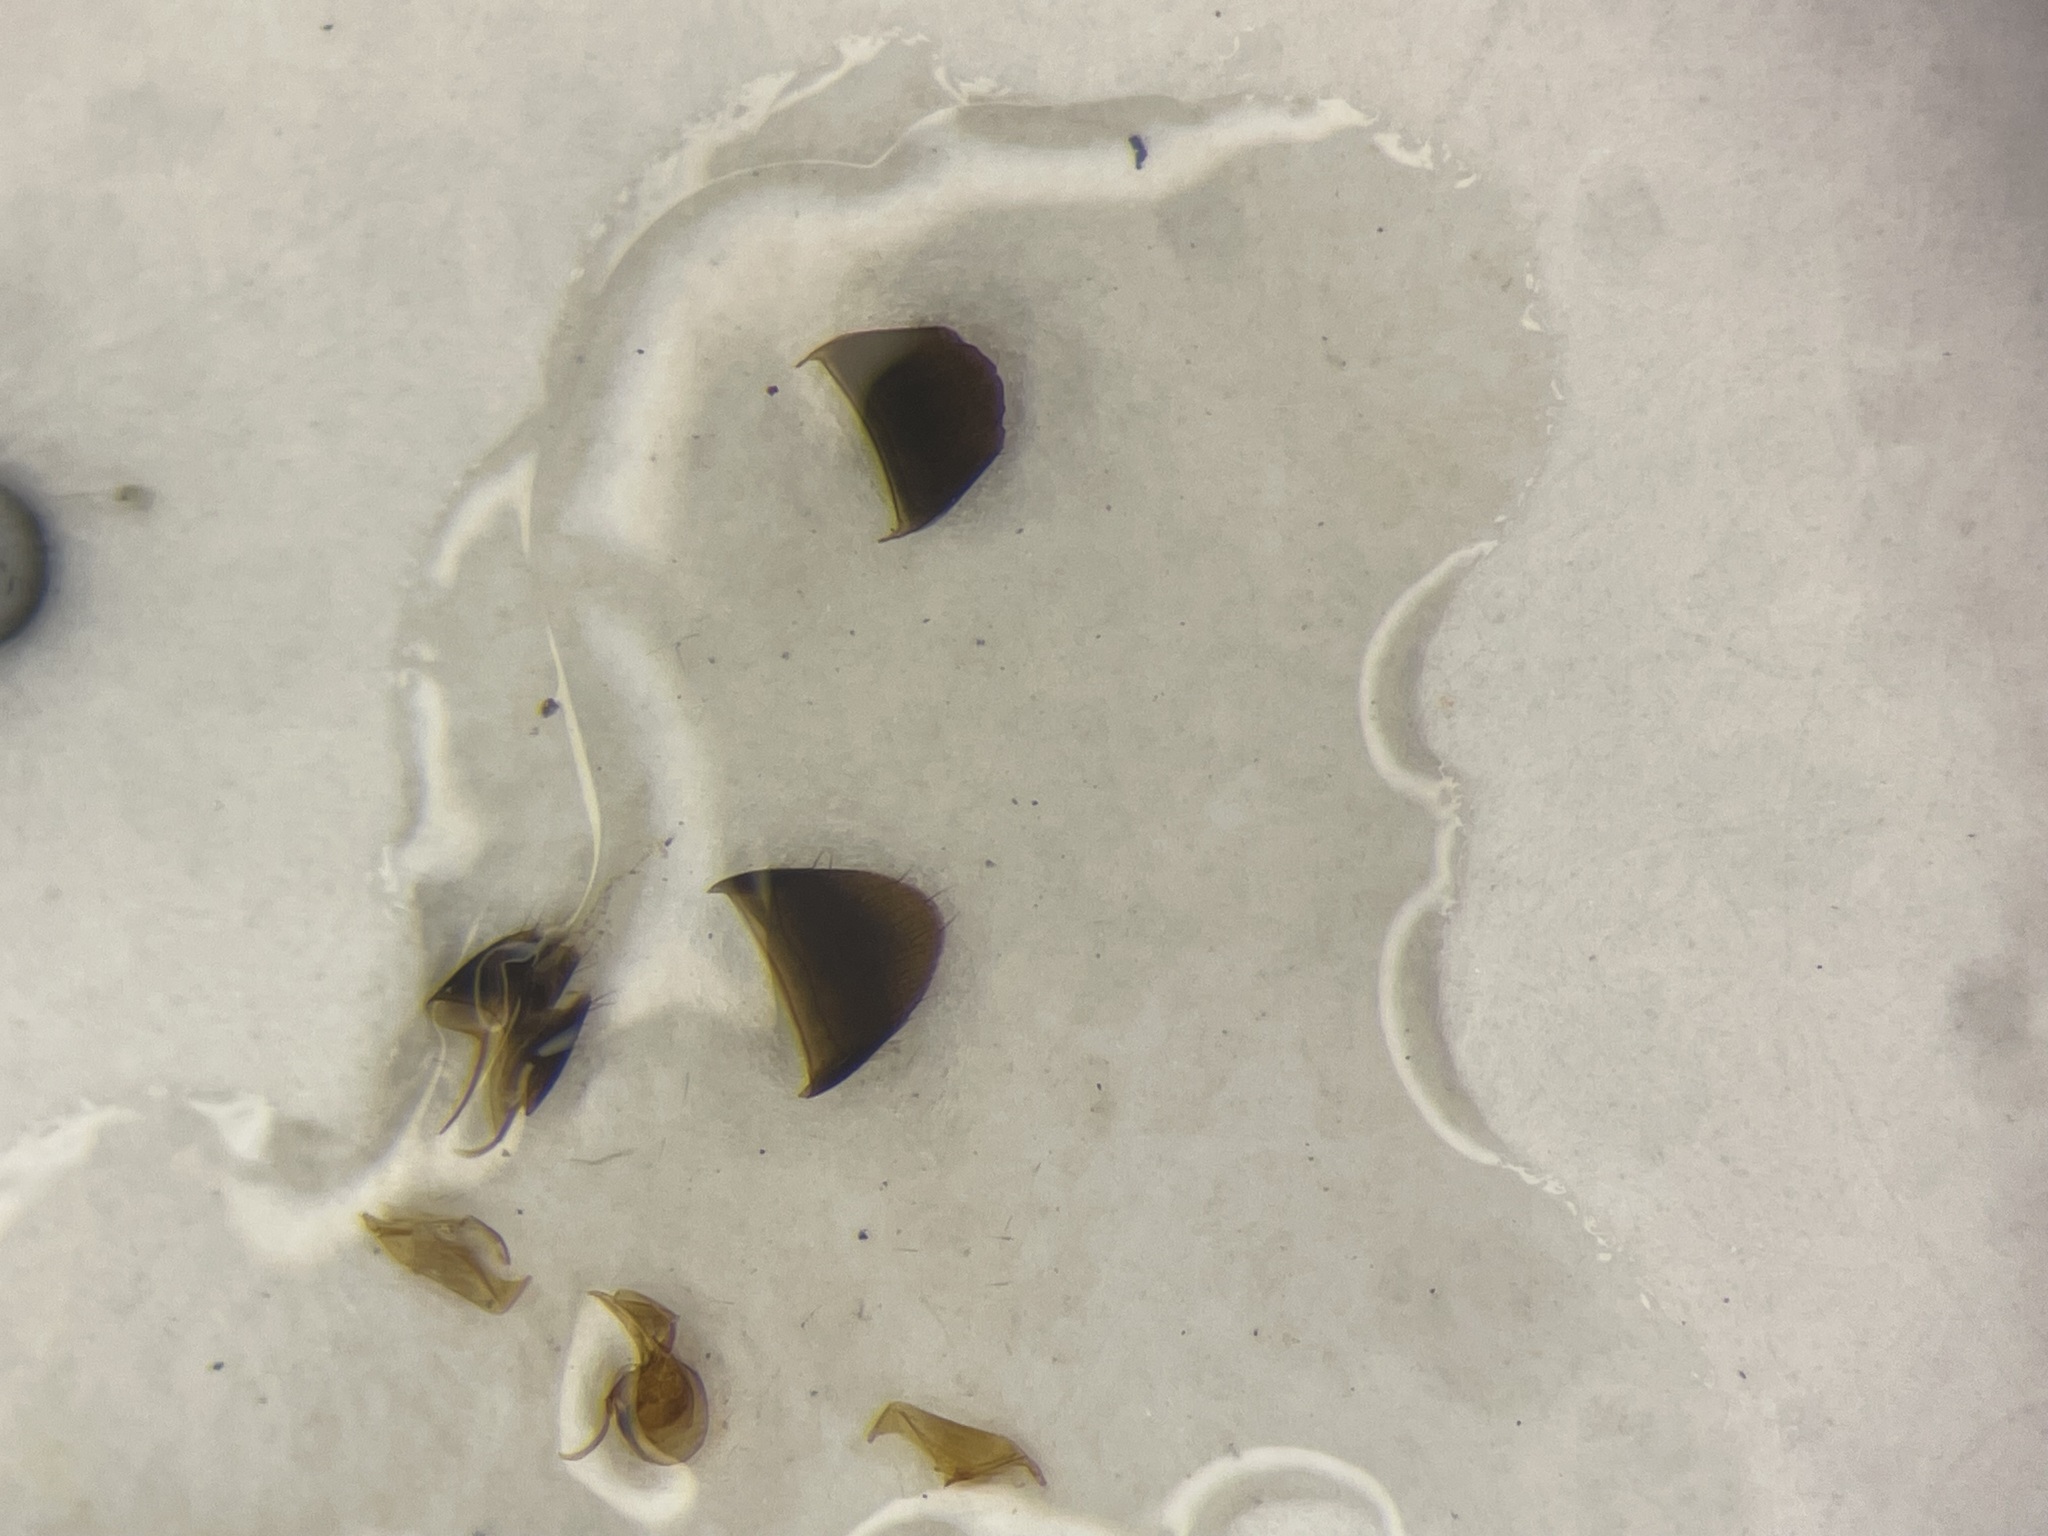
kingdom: Animalia
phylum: Arthropoda
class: Insecta
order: Coleoptera
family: Staphylinidae
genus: Earota
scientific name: Earota dentata
